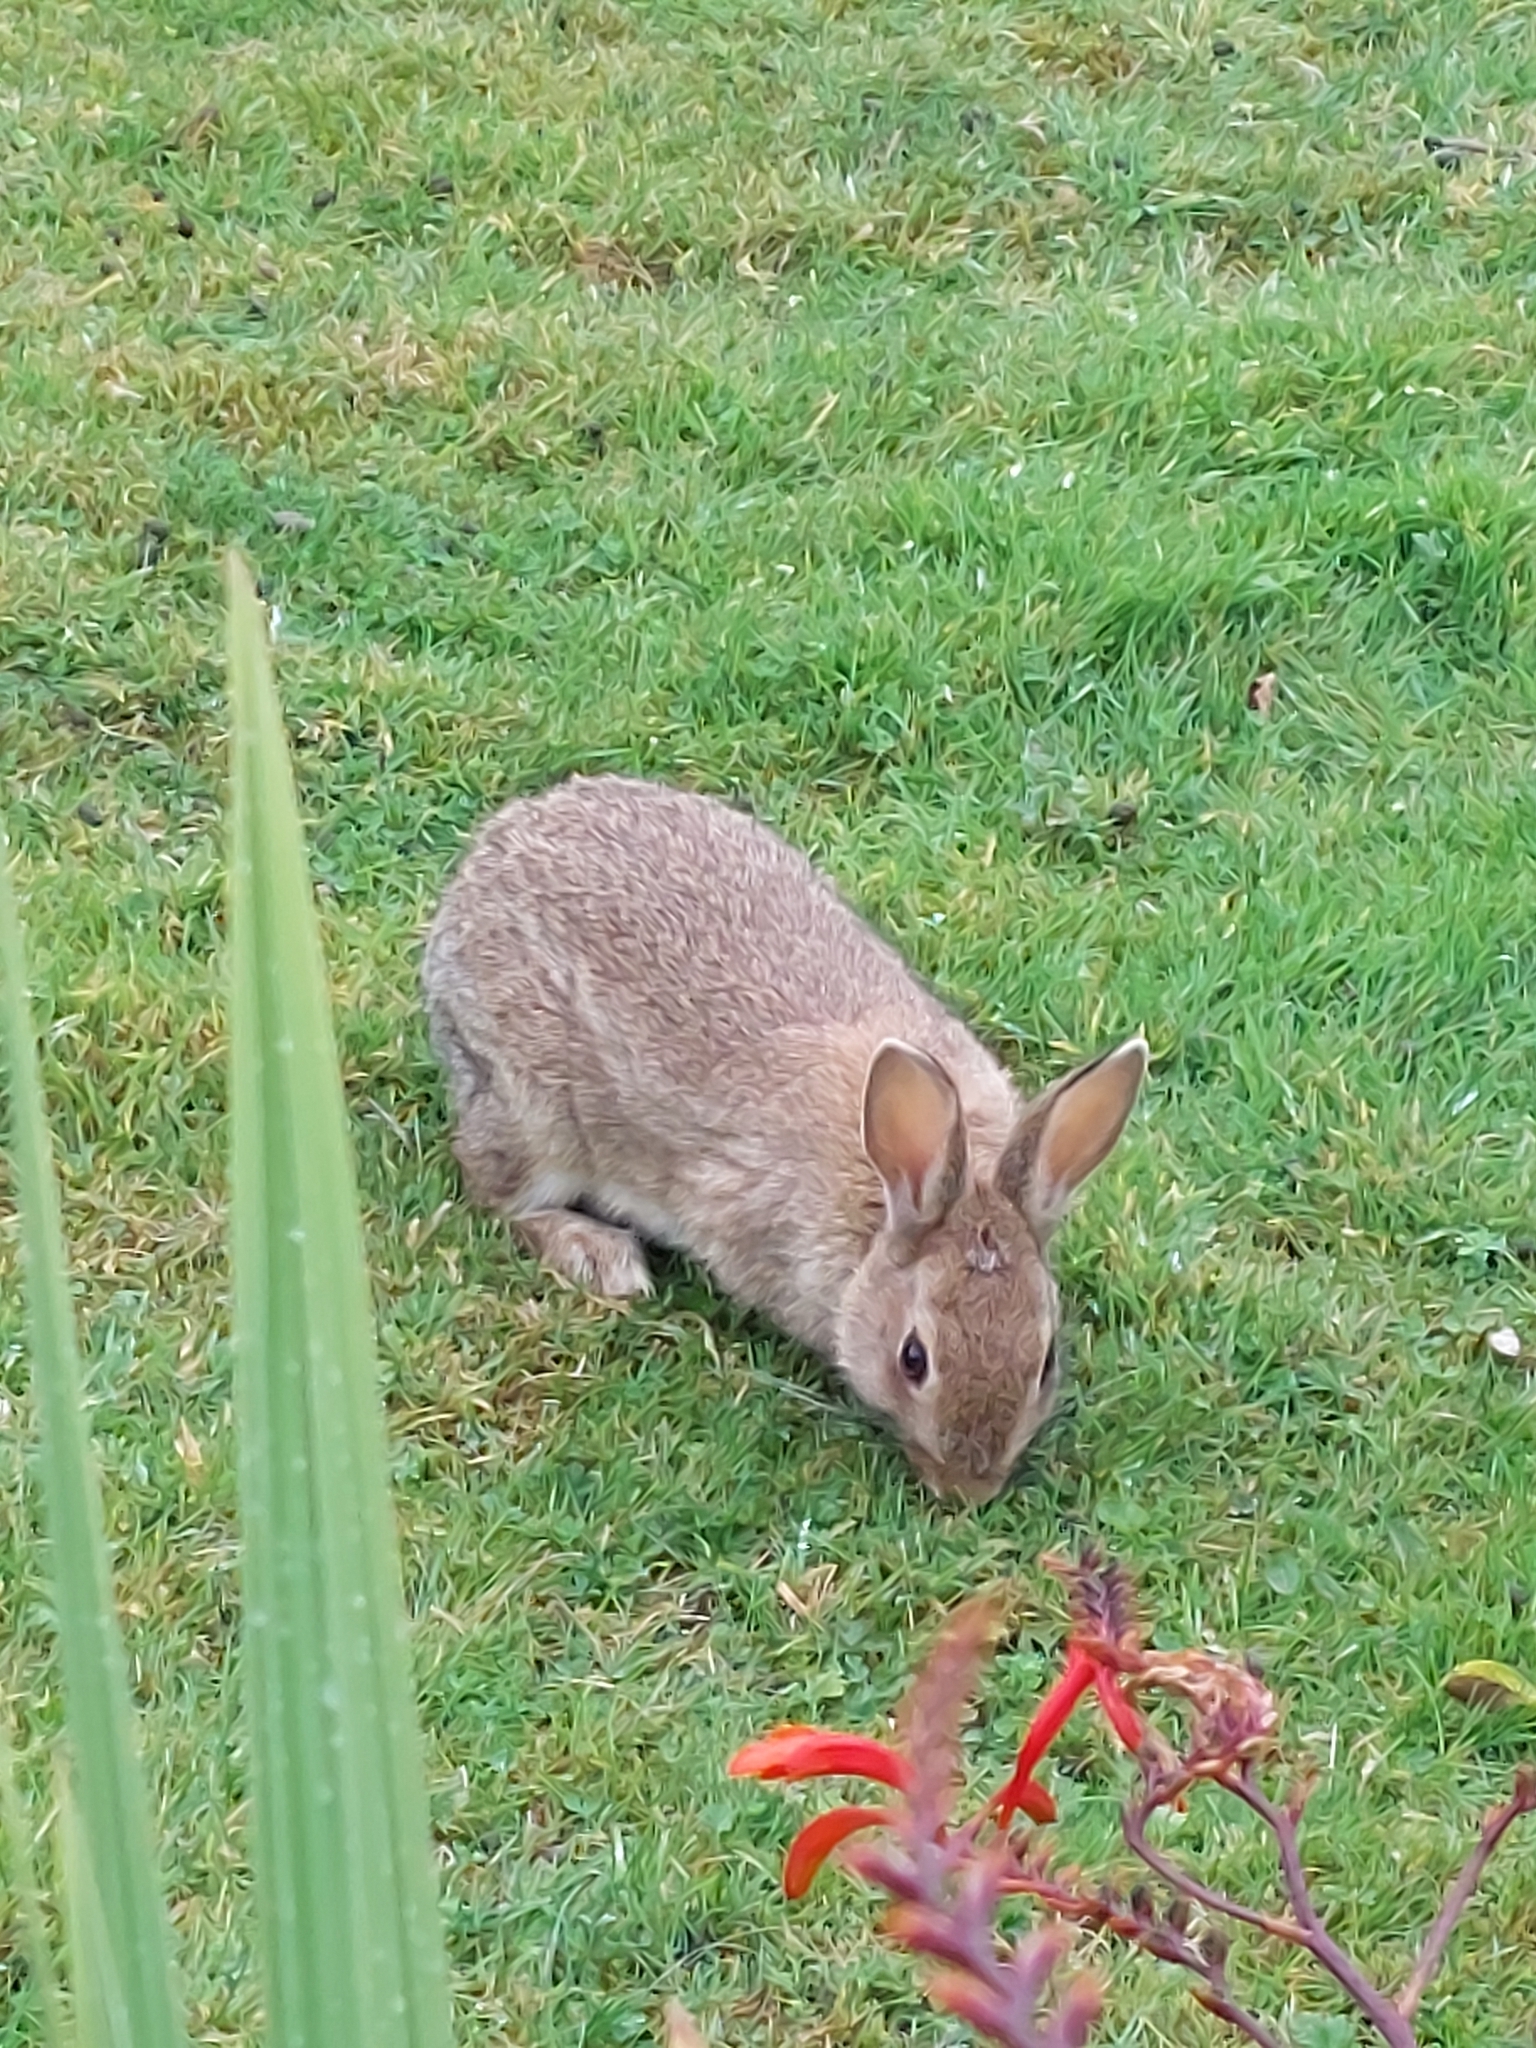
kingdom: Animalia
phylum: Chordata
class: Mammalia
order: Lagomorpha
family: Leporidae
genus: Oryctolagus
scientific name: Oryctolagus cuniculus
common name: European rabbit
